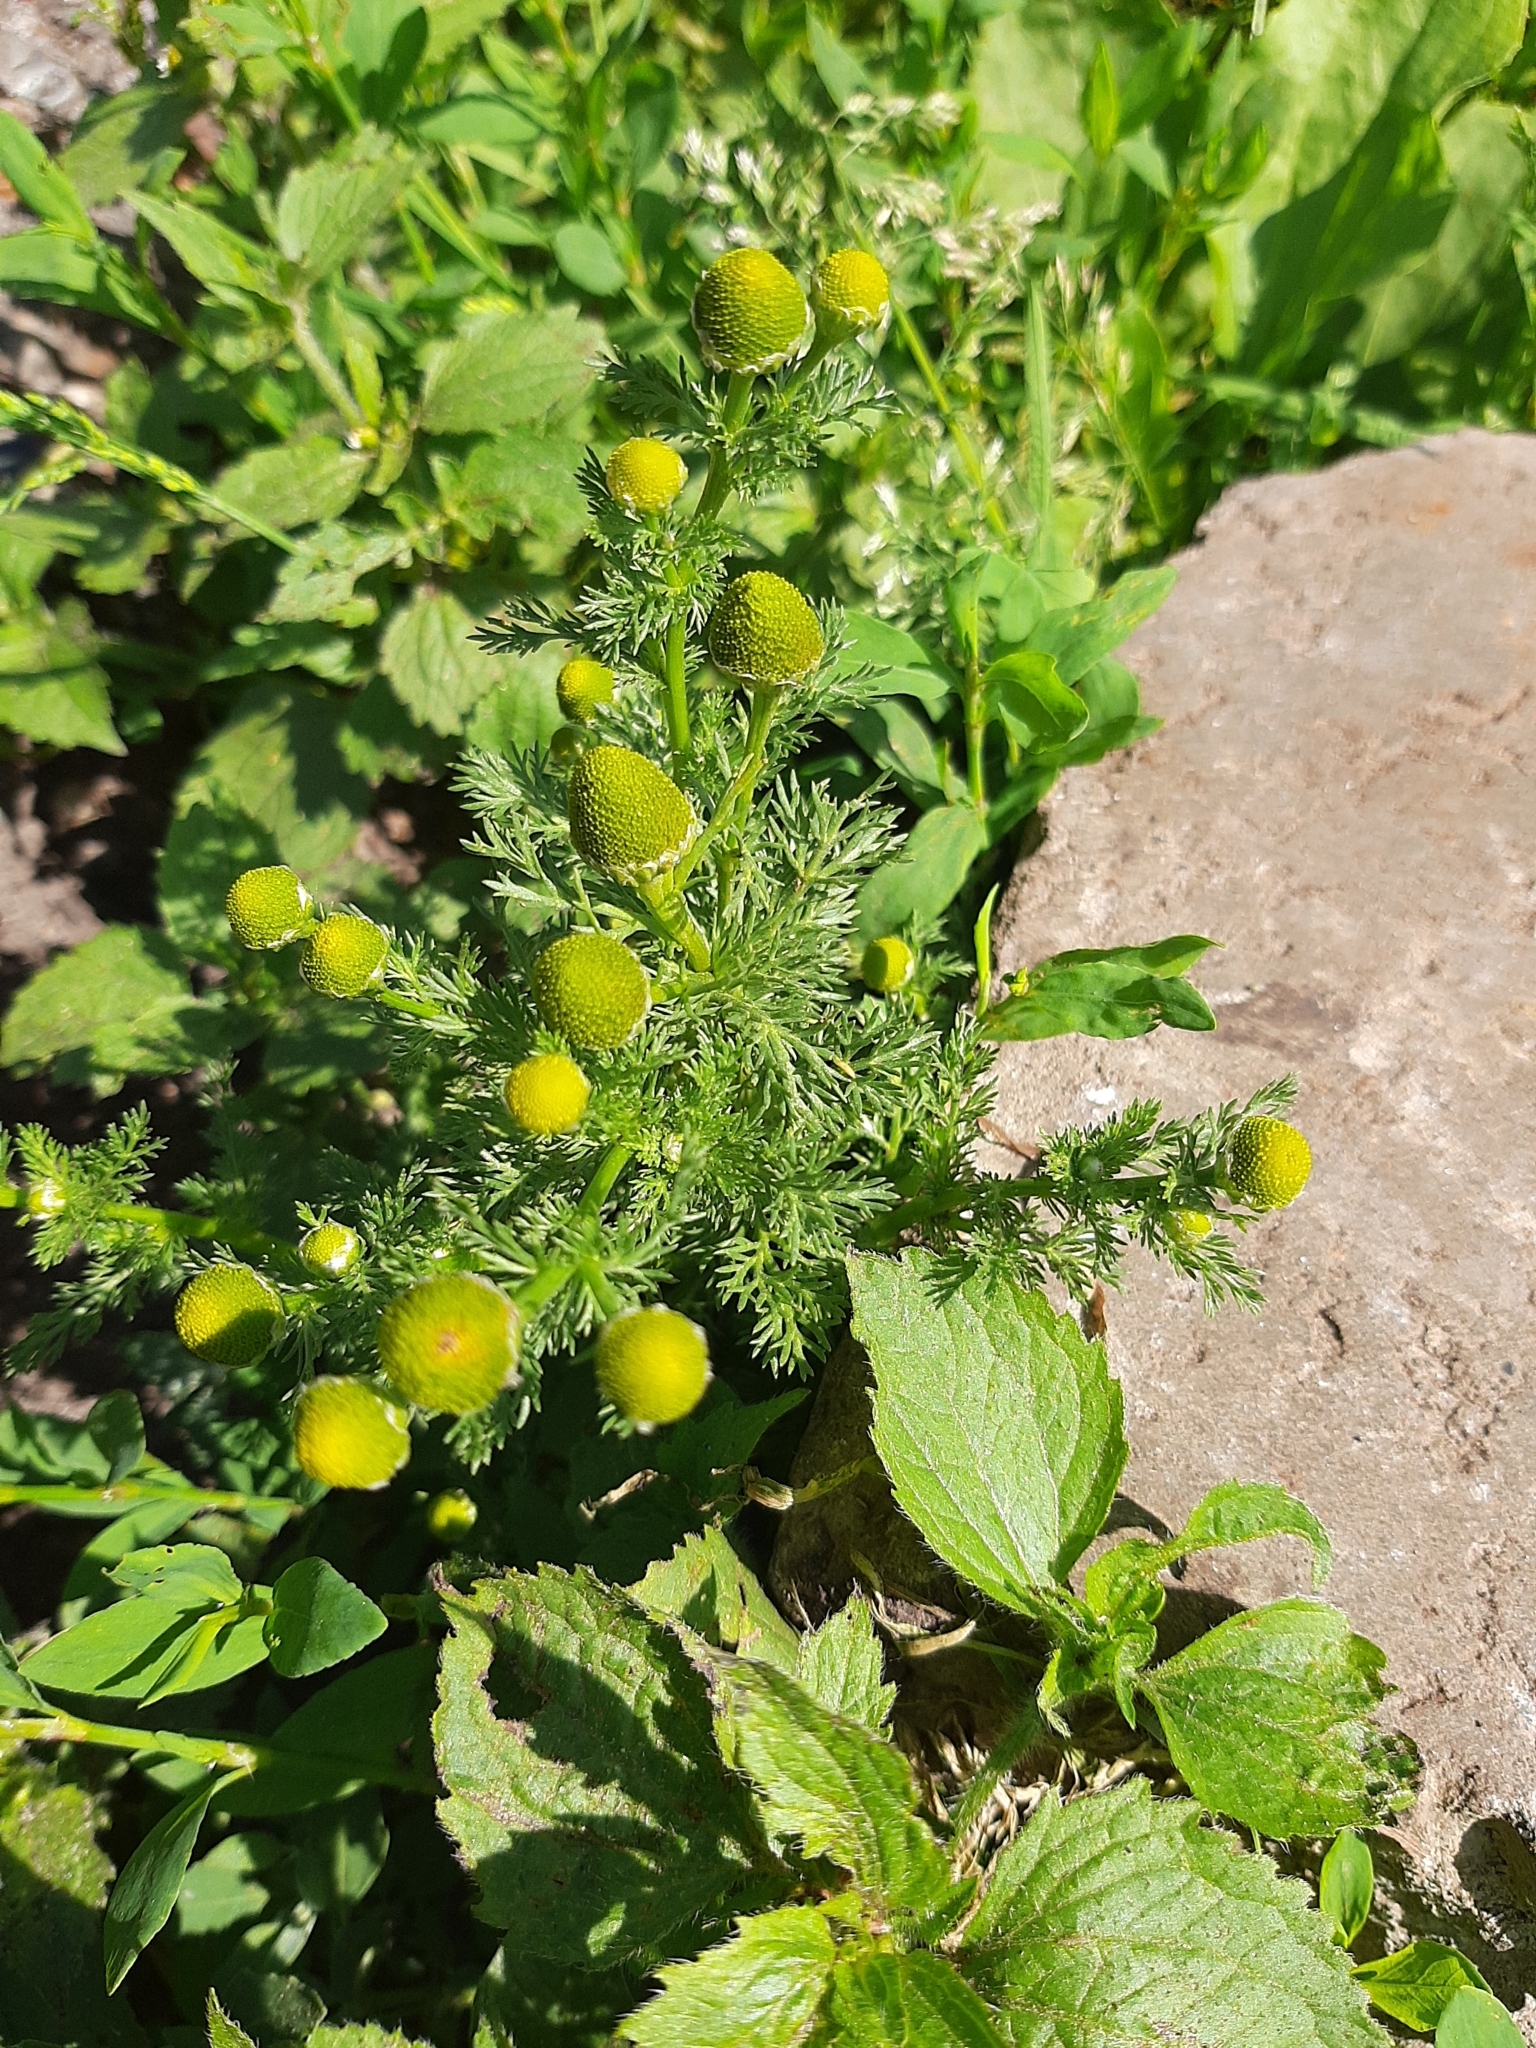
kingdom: Plantae
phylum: Tracheophyta
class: Magnoliopsida
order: Asterales
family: Asteraceae
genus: Matricaria
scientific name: Matricaria discoidea
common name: Disc mayweed
